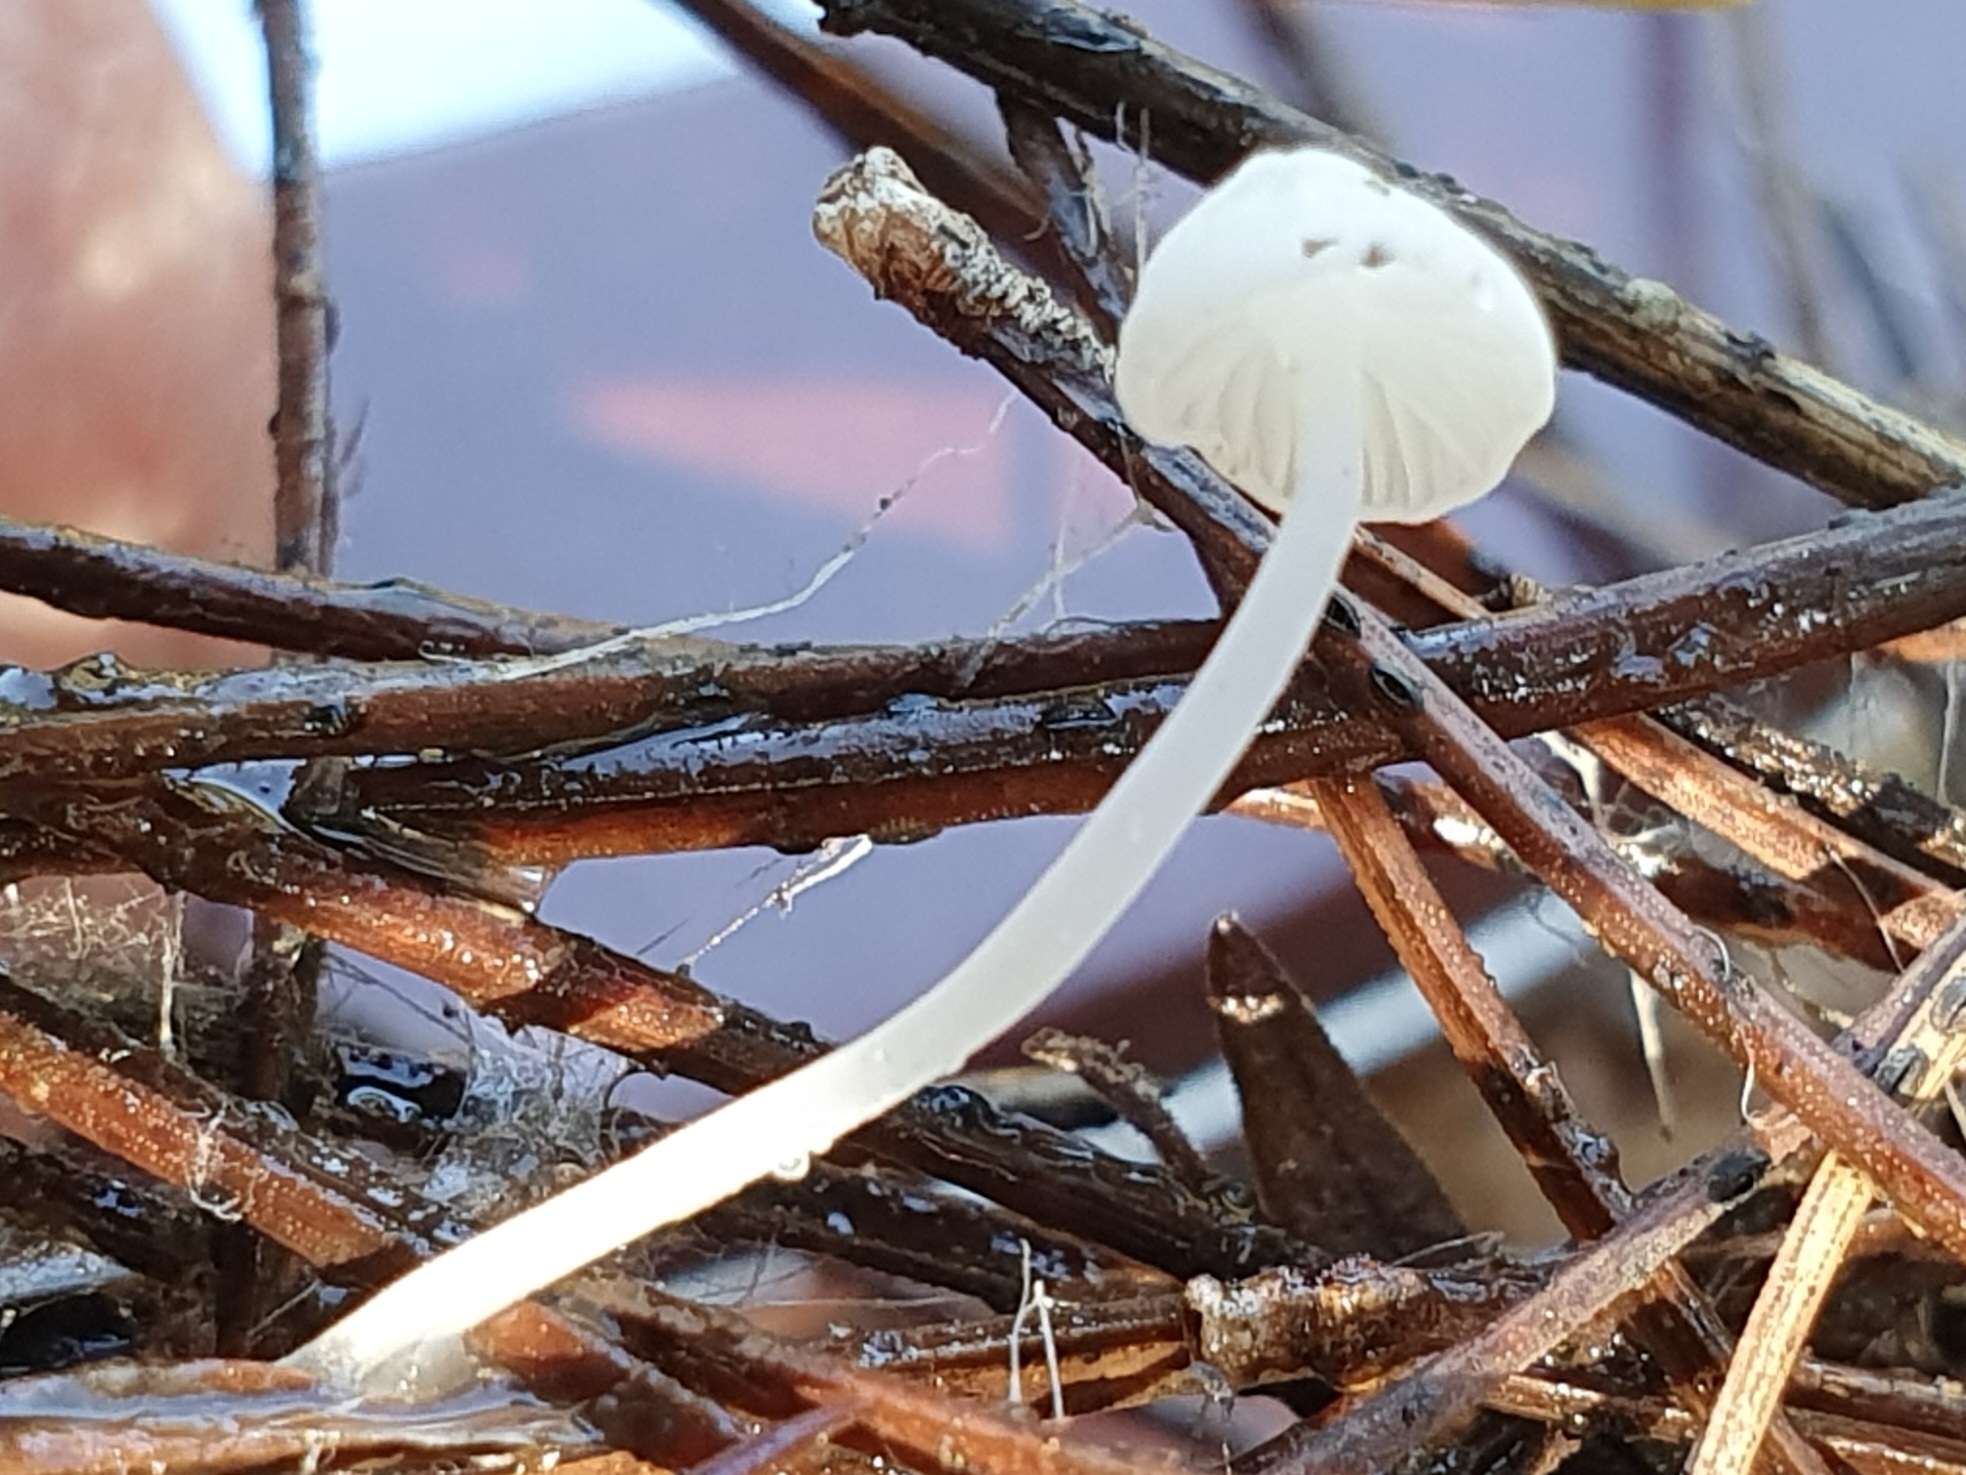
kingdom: Fungi
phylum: Basidiomycota
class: Agaricomycetes
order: Agaricales
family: Mycenaceae
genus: Hemimycena
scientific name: Hemimycena lactea
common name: Milky bonnet
